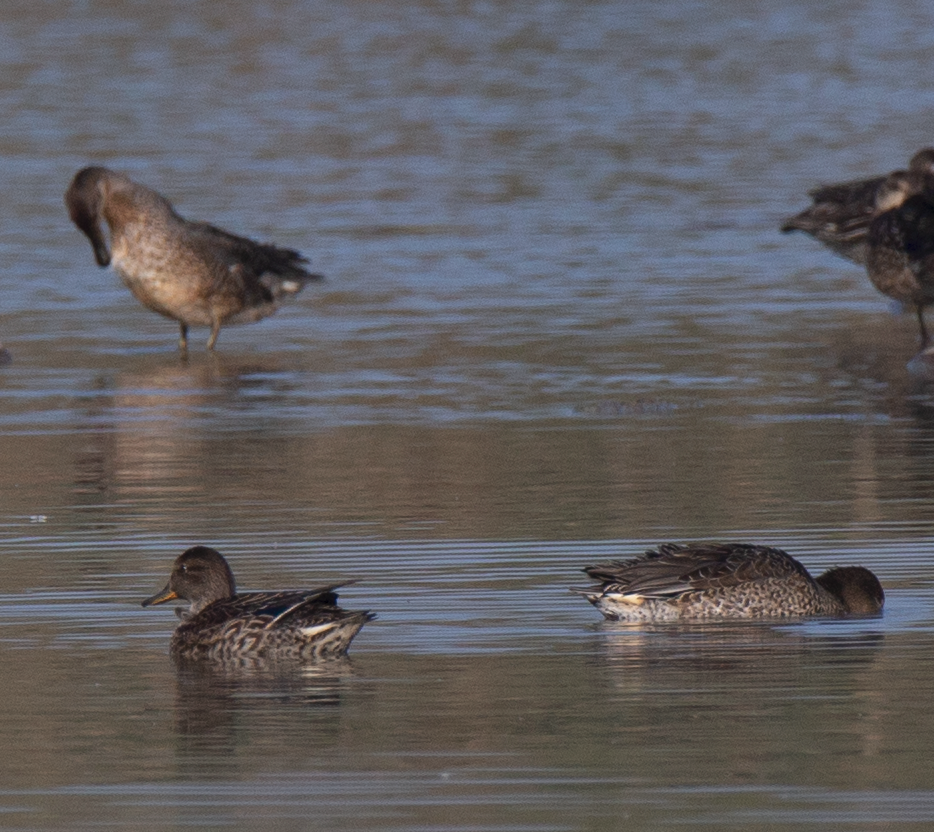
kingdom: Animalia
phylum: Chordata
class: Aves
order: Anseriformes
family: Anatidae
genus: Anas
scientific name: Anas crecca
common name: Eurasian teal
